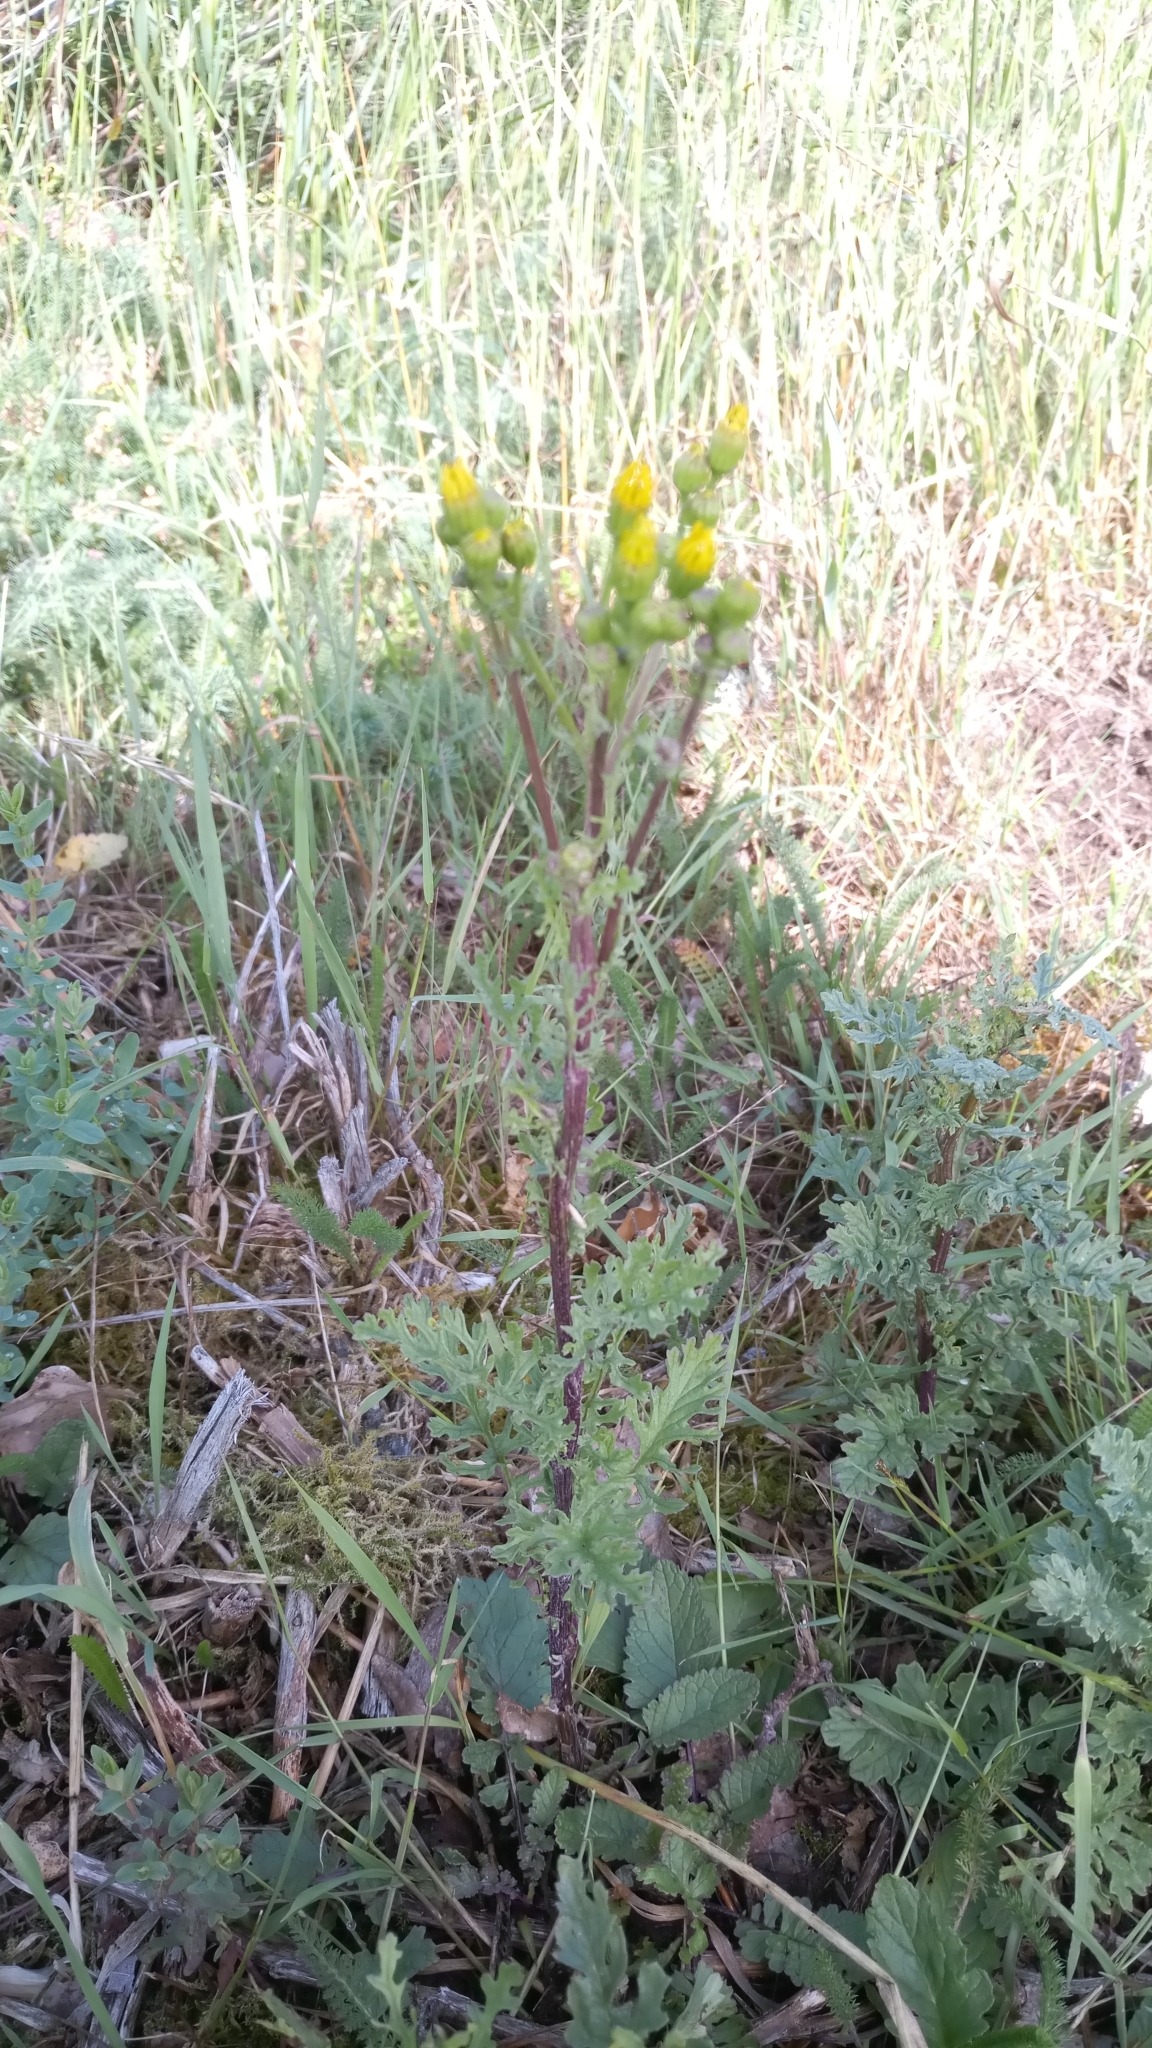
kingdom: Plantae
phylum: Tracheophyta
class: Magnoliopsida
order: Asterales
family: Asteraceae
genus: Jacobaea
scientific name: Jacobaea vulgaris
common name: Stinking willie
